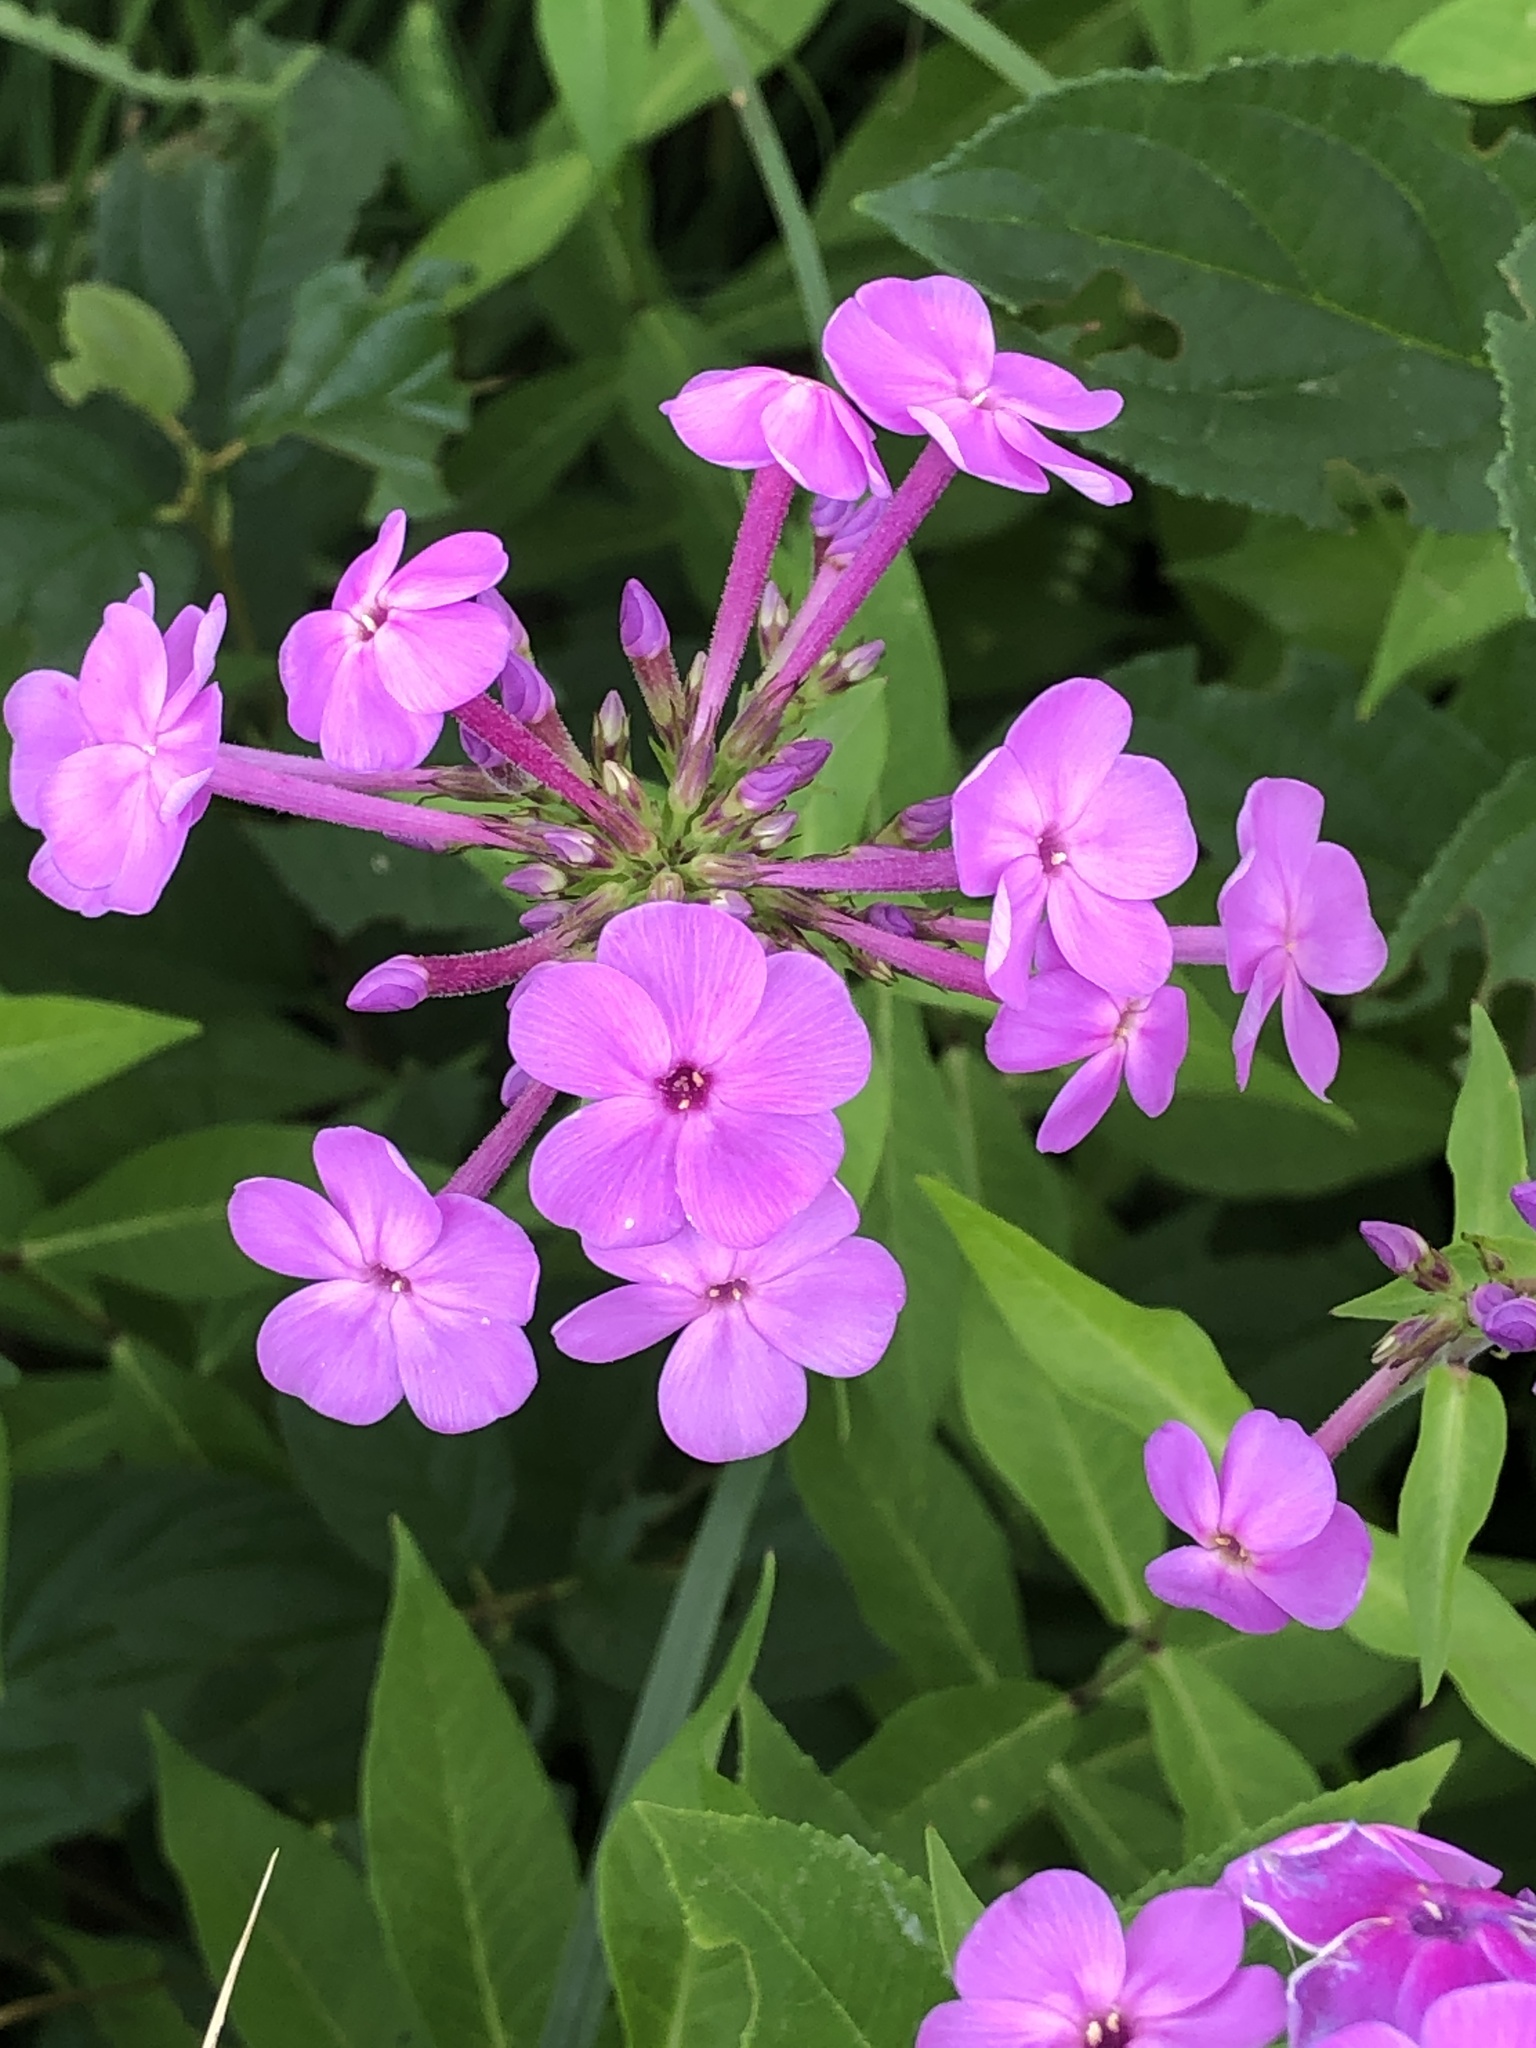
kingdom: Plantae
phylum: Tracheophyta
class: Magnoliopsida
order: Ericales
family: Polemoniaceae
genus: Phlox
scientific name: Phlox paniculata
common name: Fall phlox
